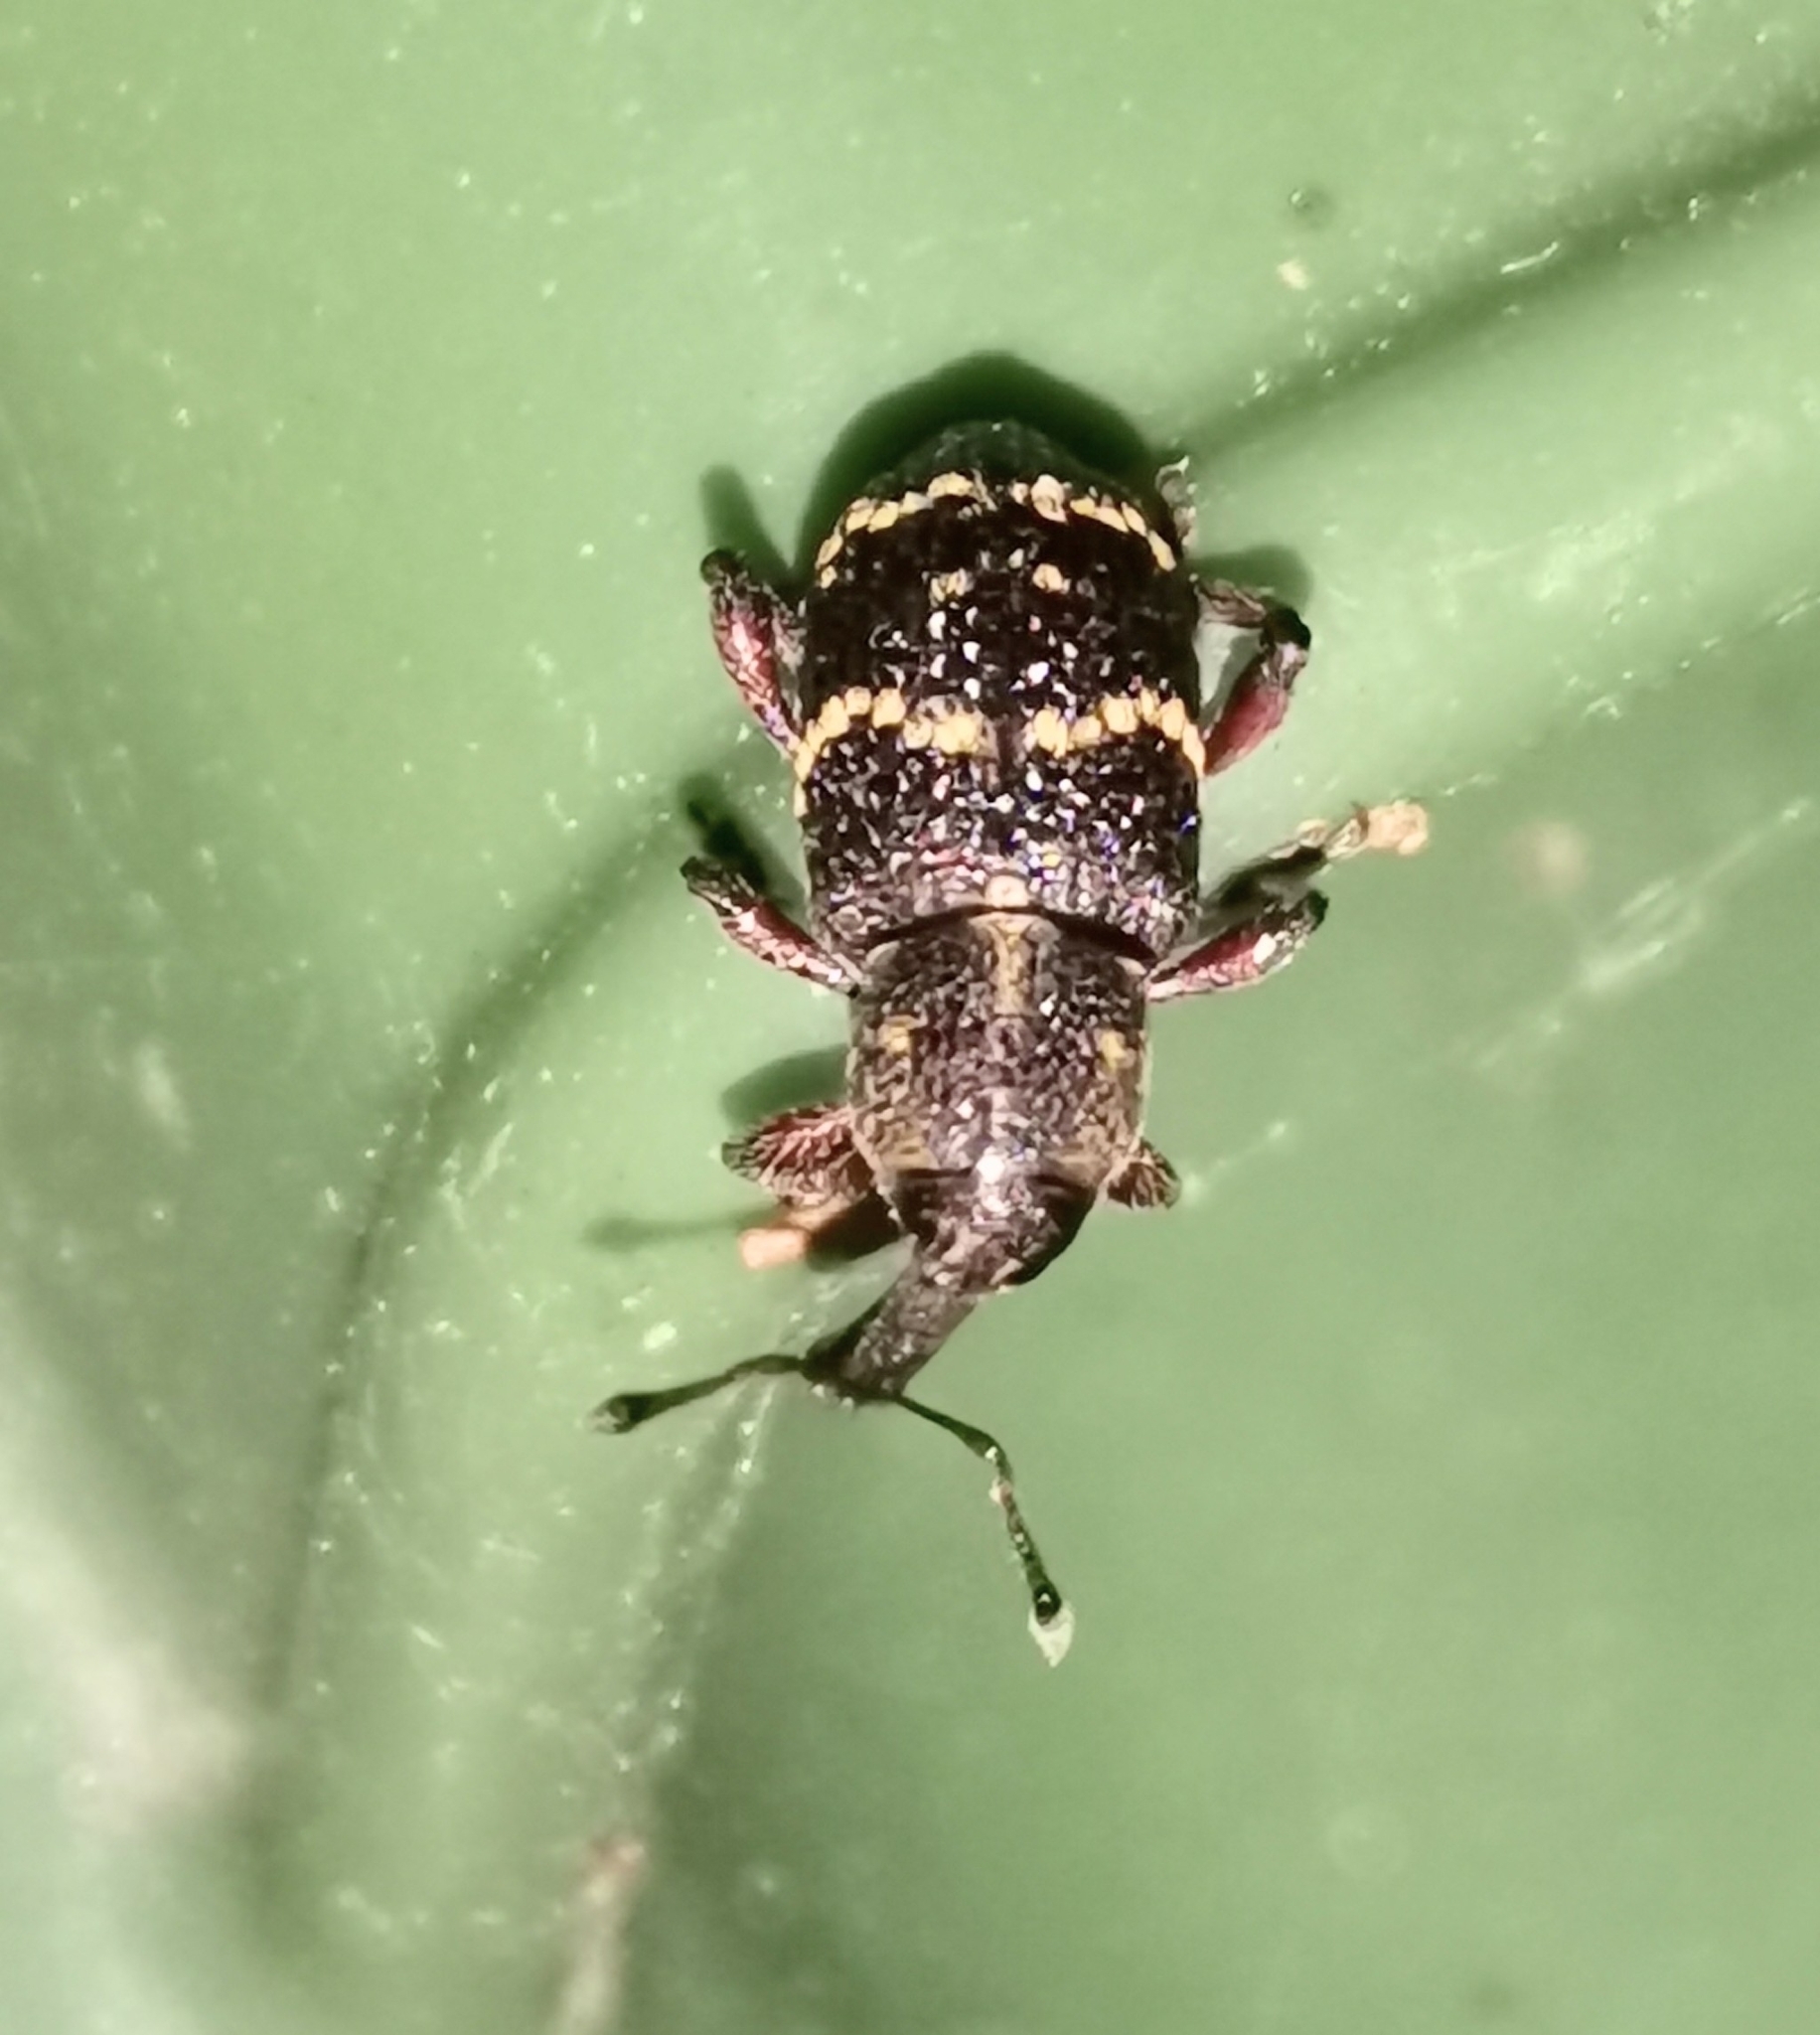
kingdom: Animalia
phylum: Arthropoda
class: Insecta
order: Coleoptera
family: Curculionidae
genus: Hylobius
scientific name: Hylobius abietis
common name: Large pine weevil
